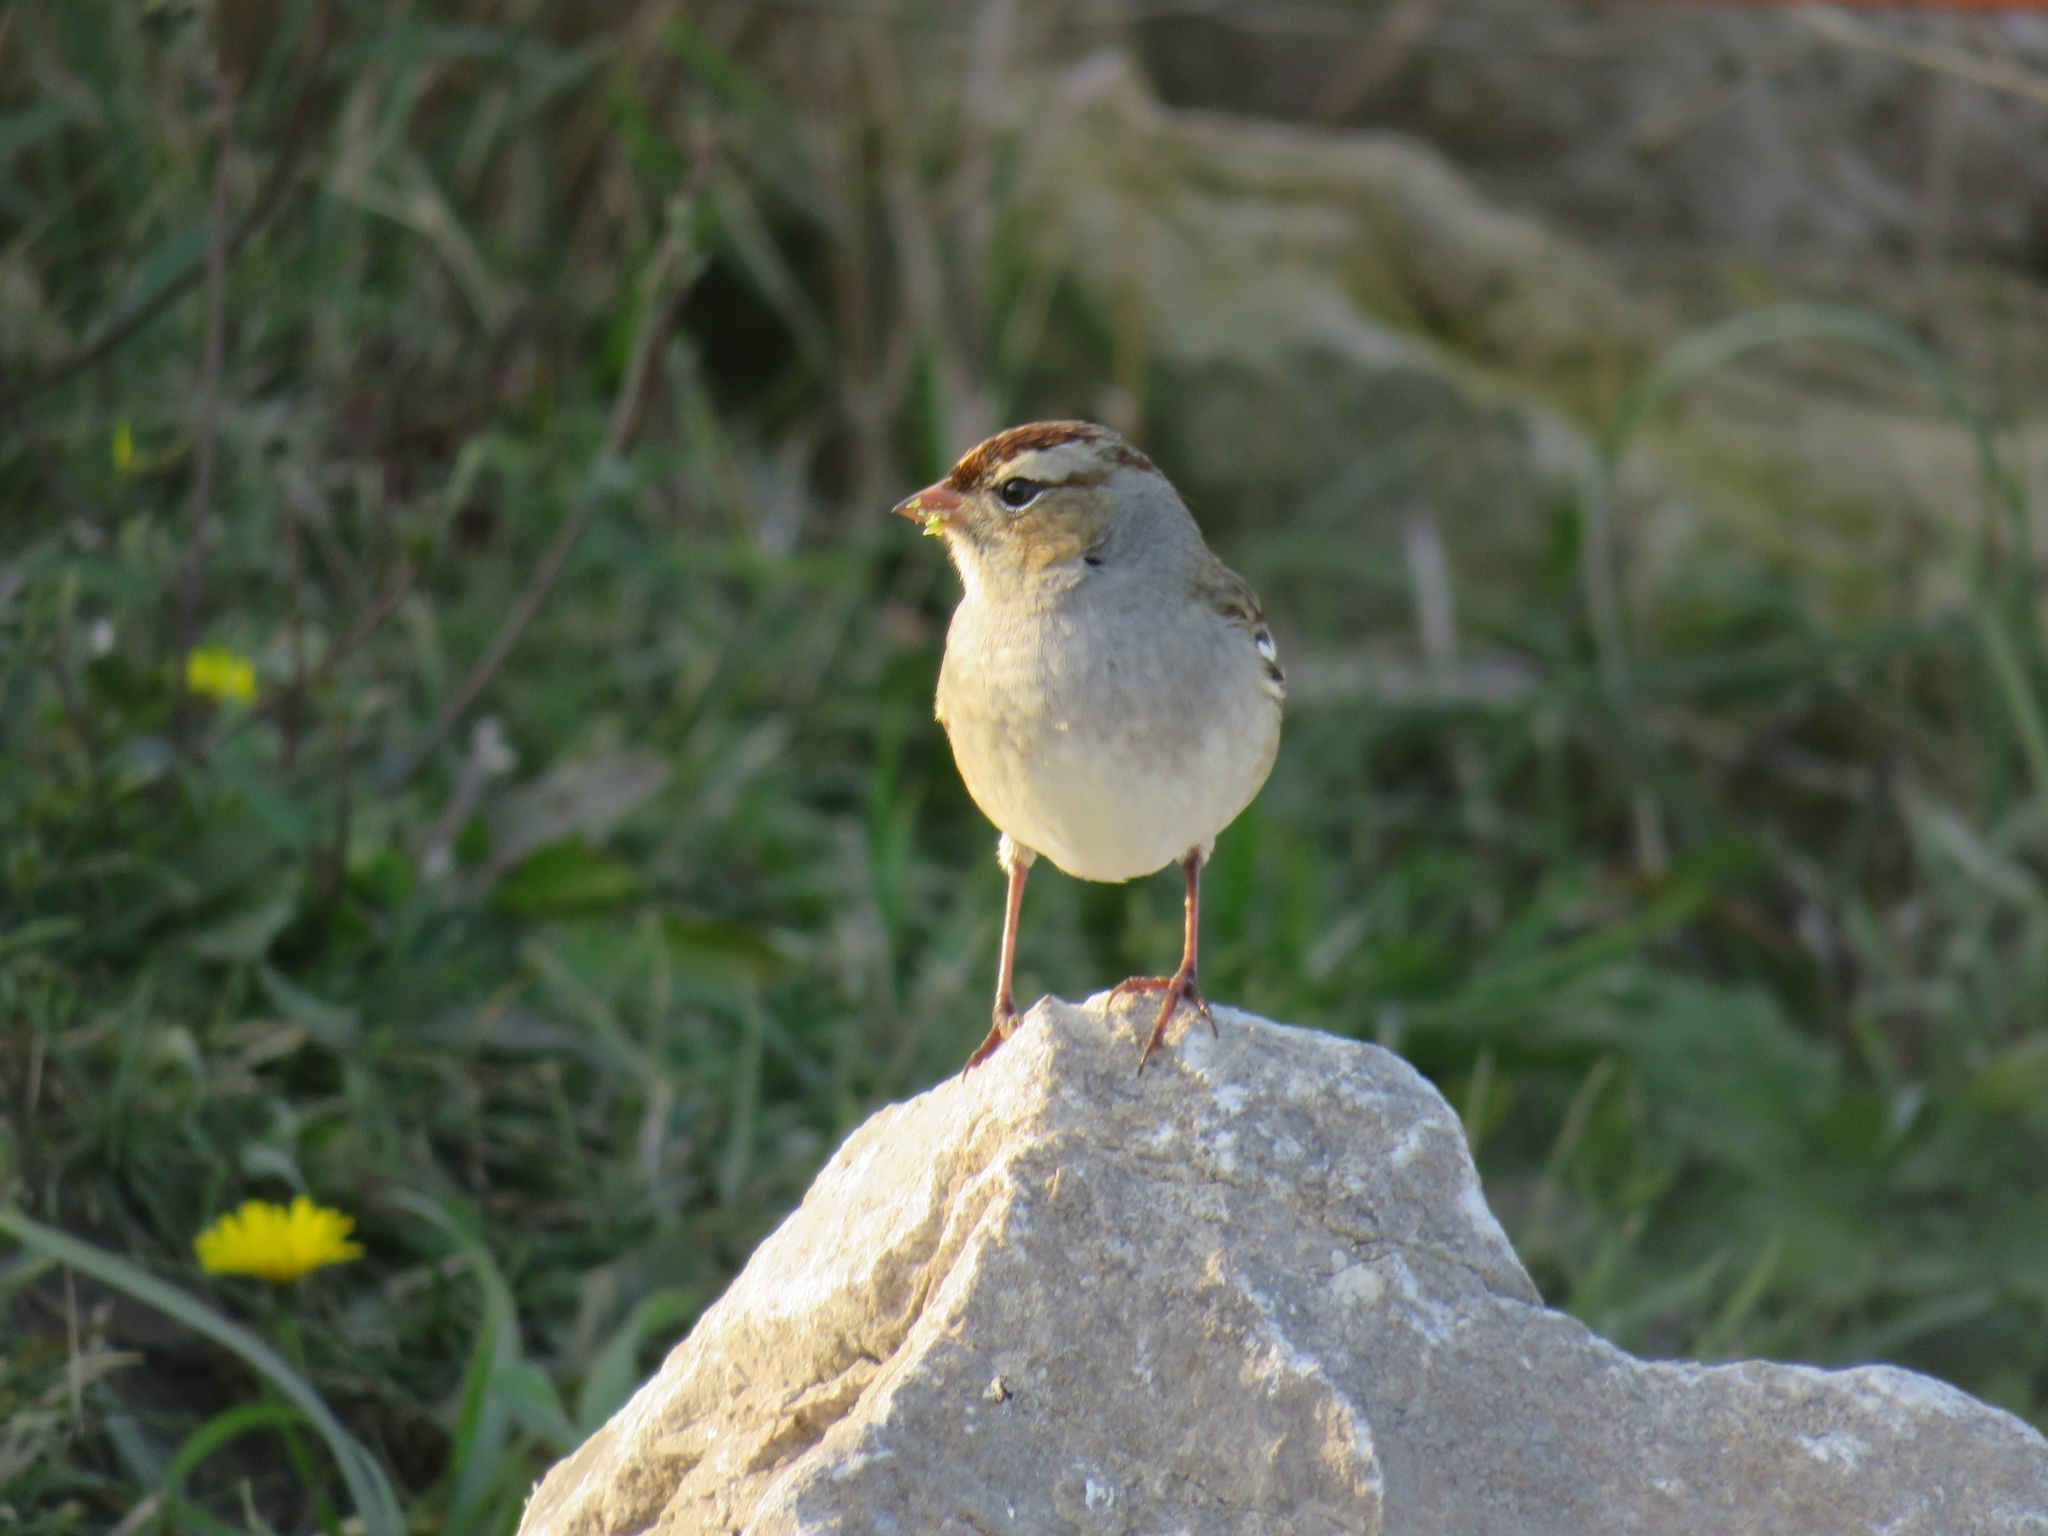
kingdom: Animalia
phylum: Chordata
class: Aves
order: Passeriformes
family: Passerellidae
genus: Zonotrichia
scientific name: Zonotrichia leucophrys
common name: White-crowned sparrow
